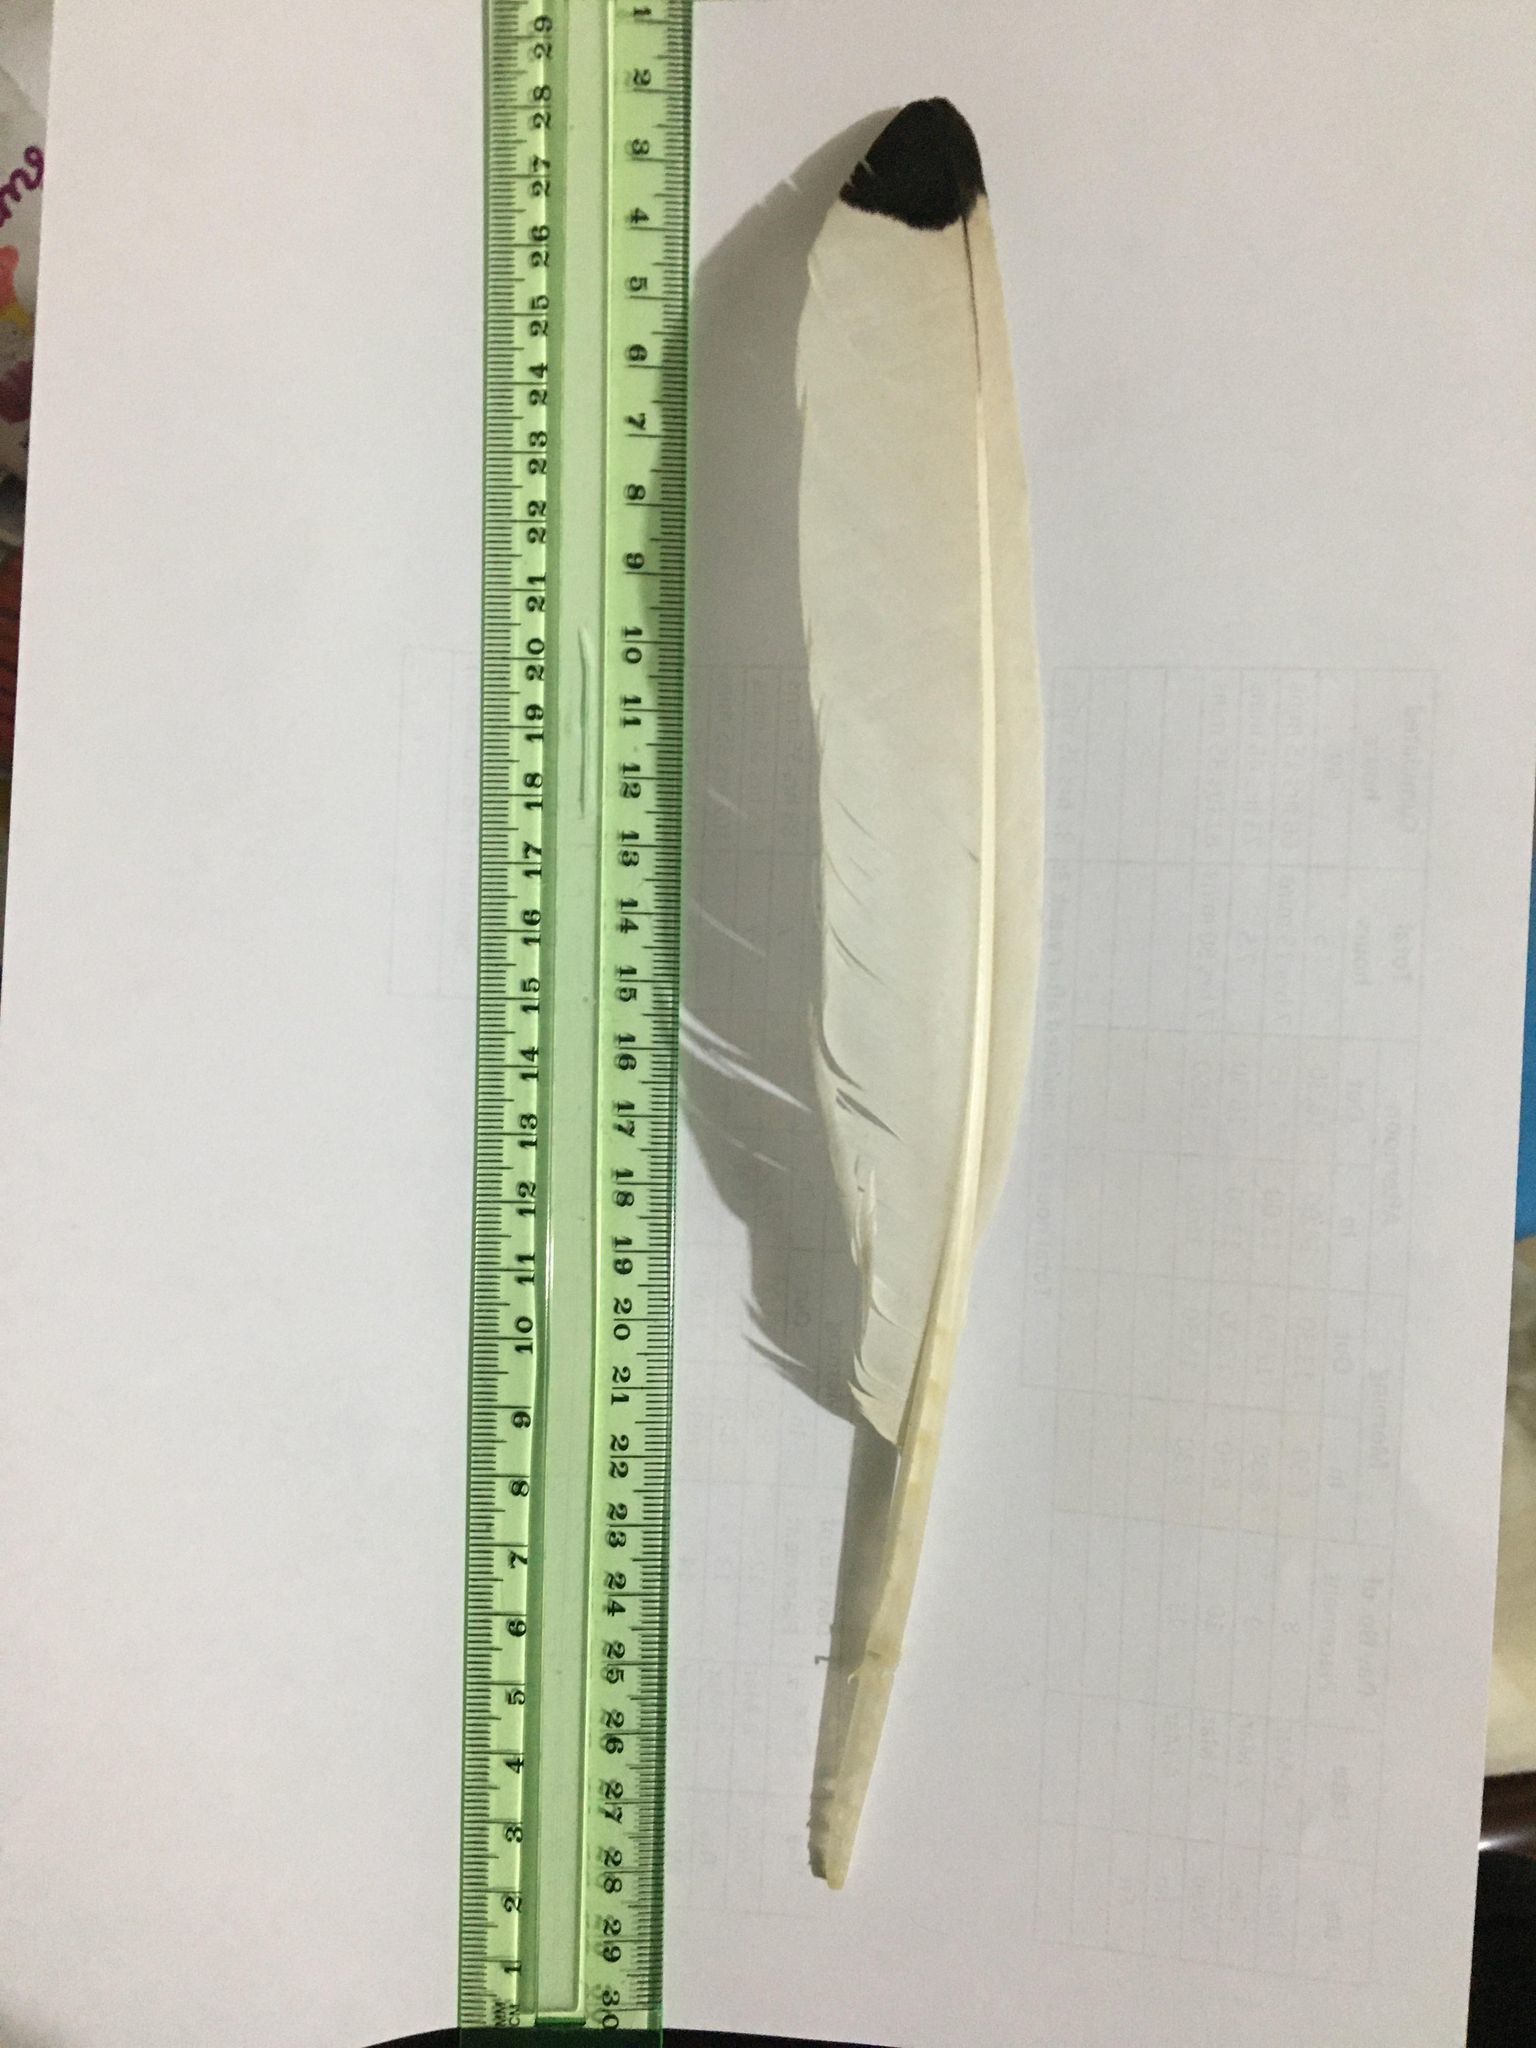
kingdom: Animalia
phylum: Chordata
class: Aves
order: Pelecaniformes
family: Threskiornithidae
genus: Threskiornis
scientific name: Threskiornis molucca
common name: Australian white ibis
